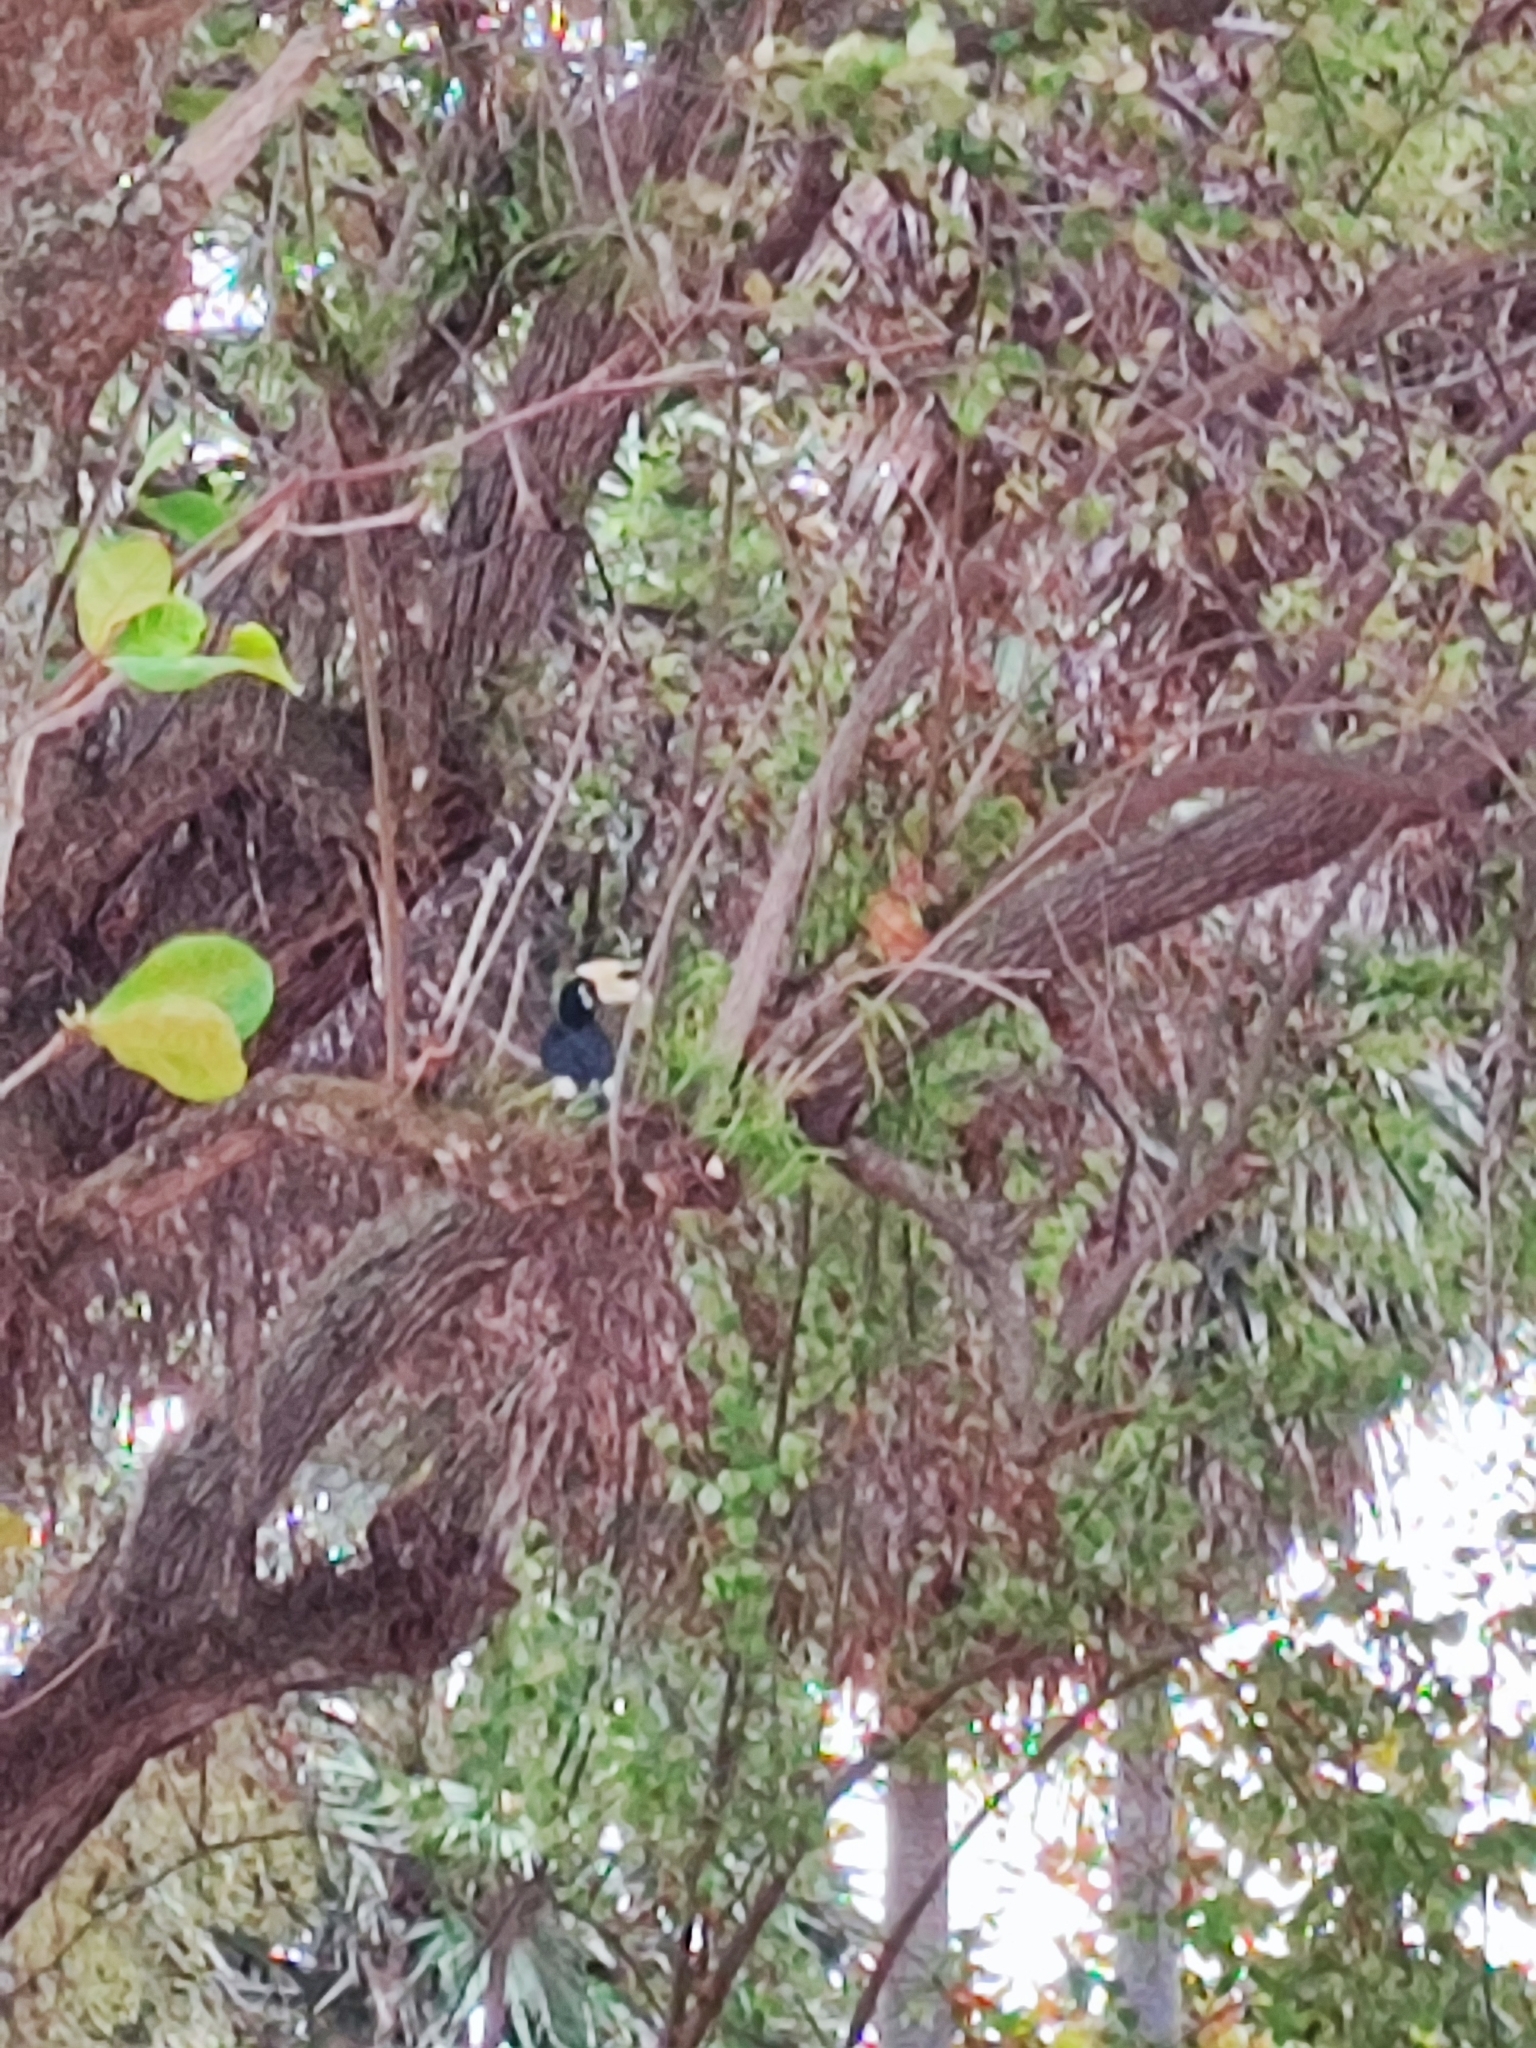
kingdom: Animalia
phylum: Chordata
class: Aves
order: Bucerotiformes
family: Bucerotidae
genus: Anthracoceros
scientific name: Anthracoceros albirostris
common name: Oriental pied-hornbill
